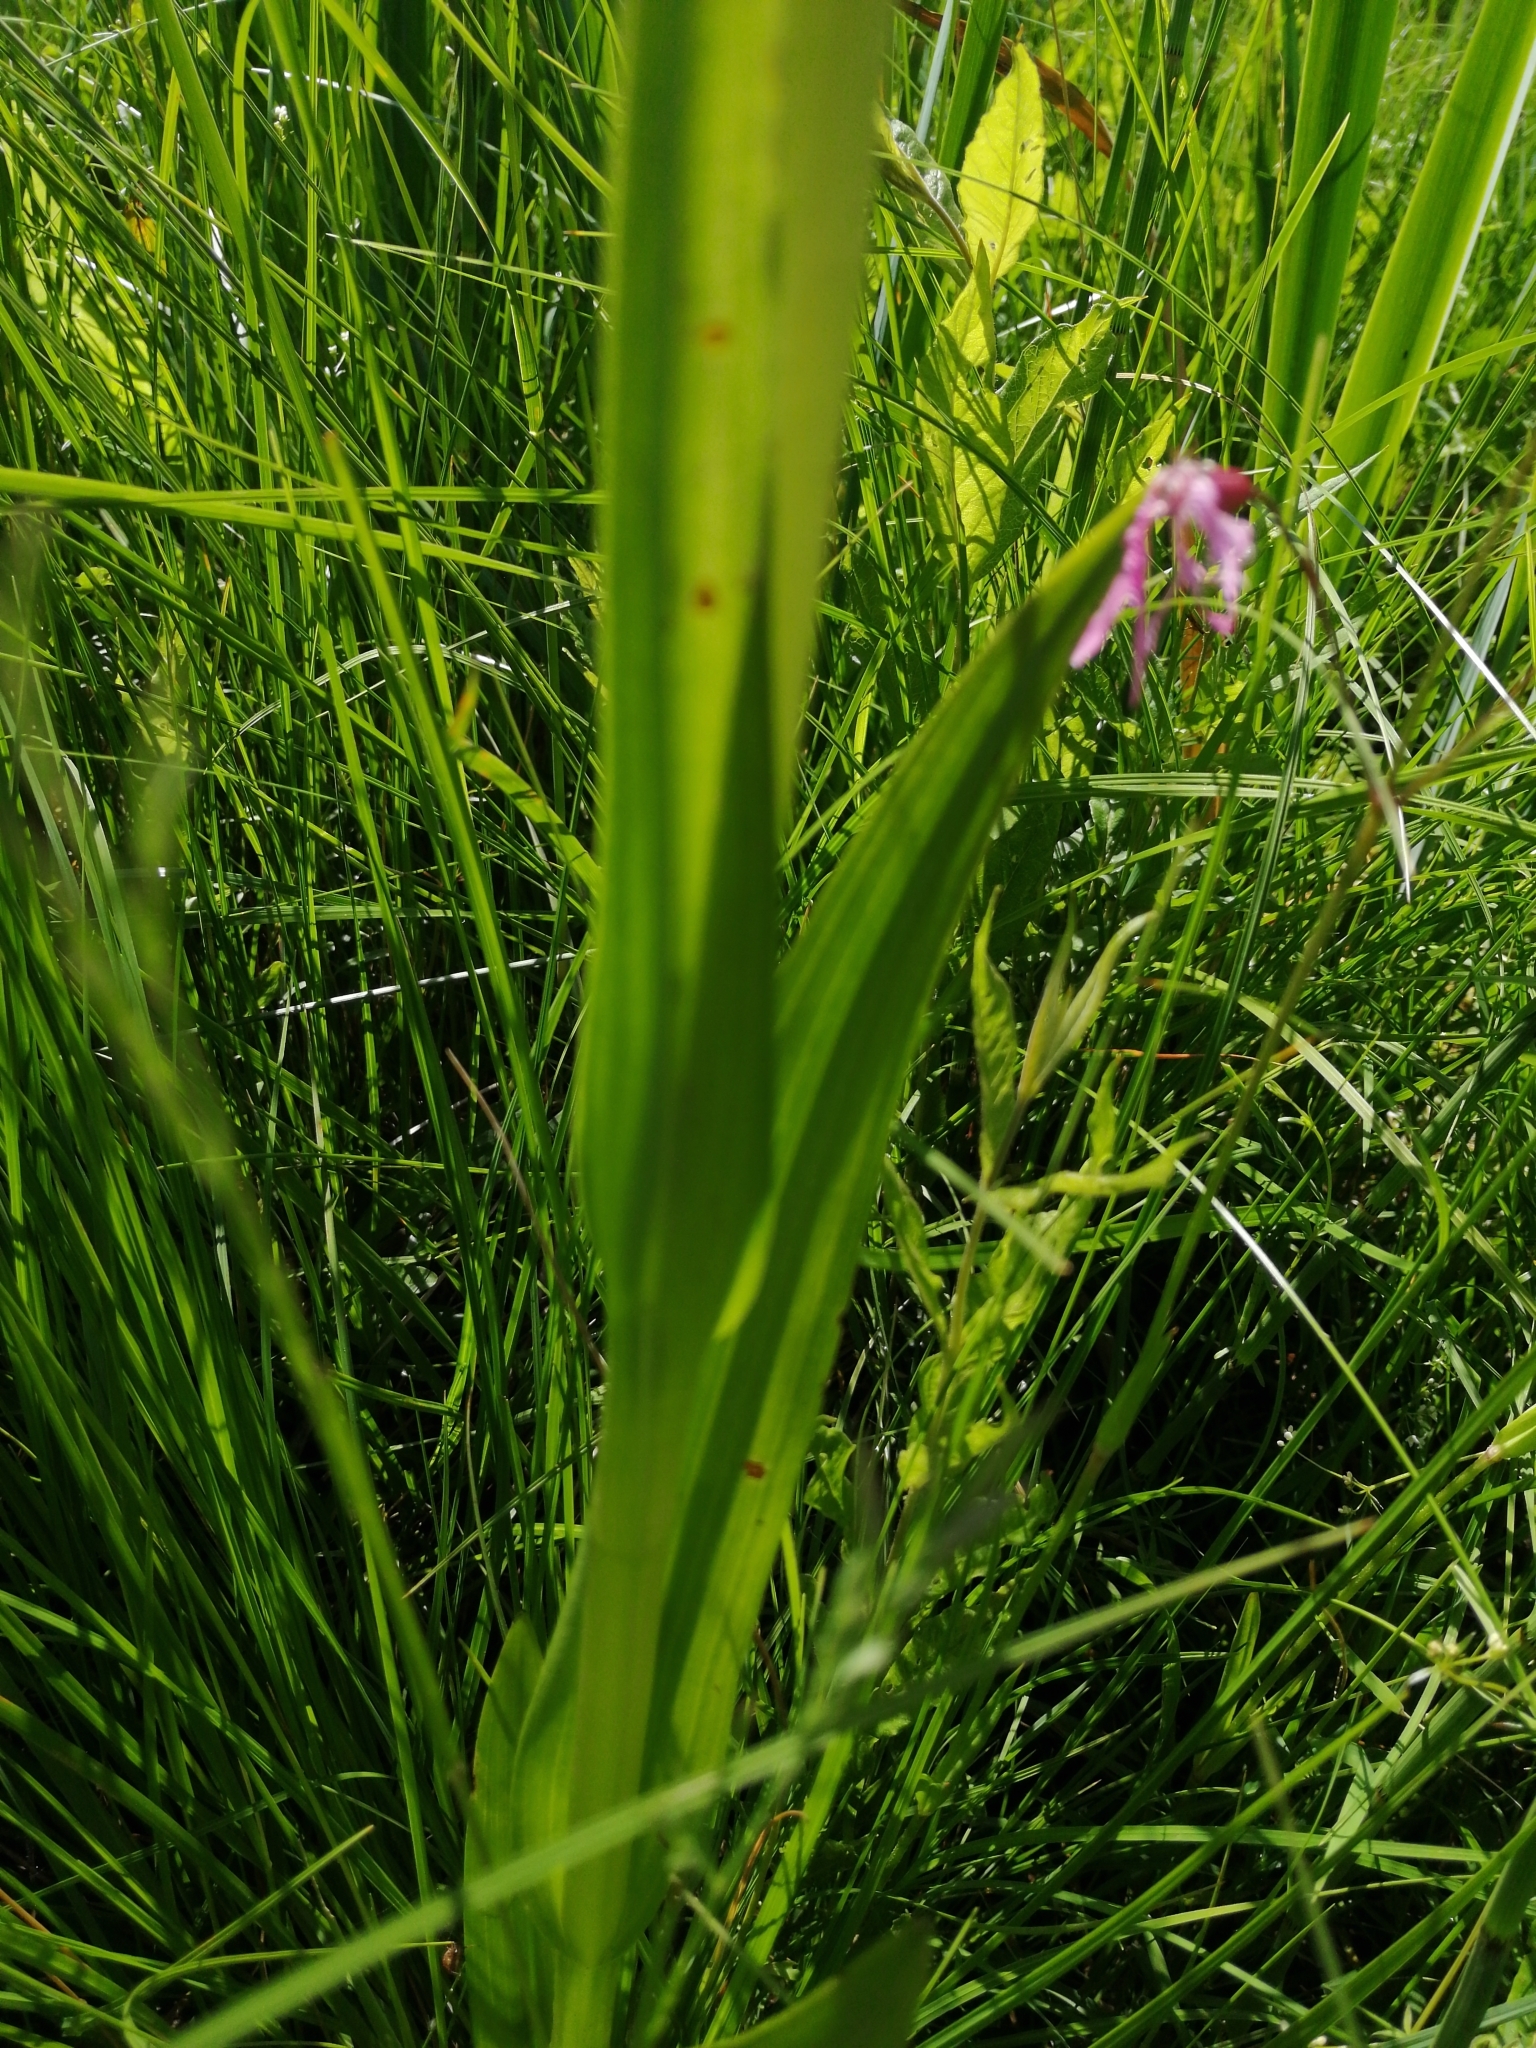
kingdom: Plantae
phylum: Tracheophyta
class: Liliopsida
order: Asparagales
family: Orchidaceae
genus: Dactylorhiza
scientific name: Dactylorhiza incarnata
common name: Early marsh-orchid
